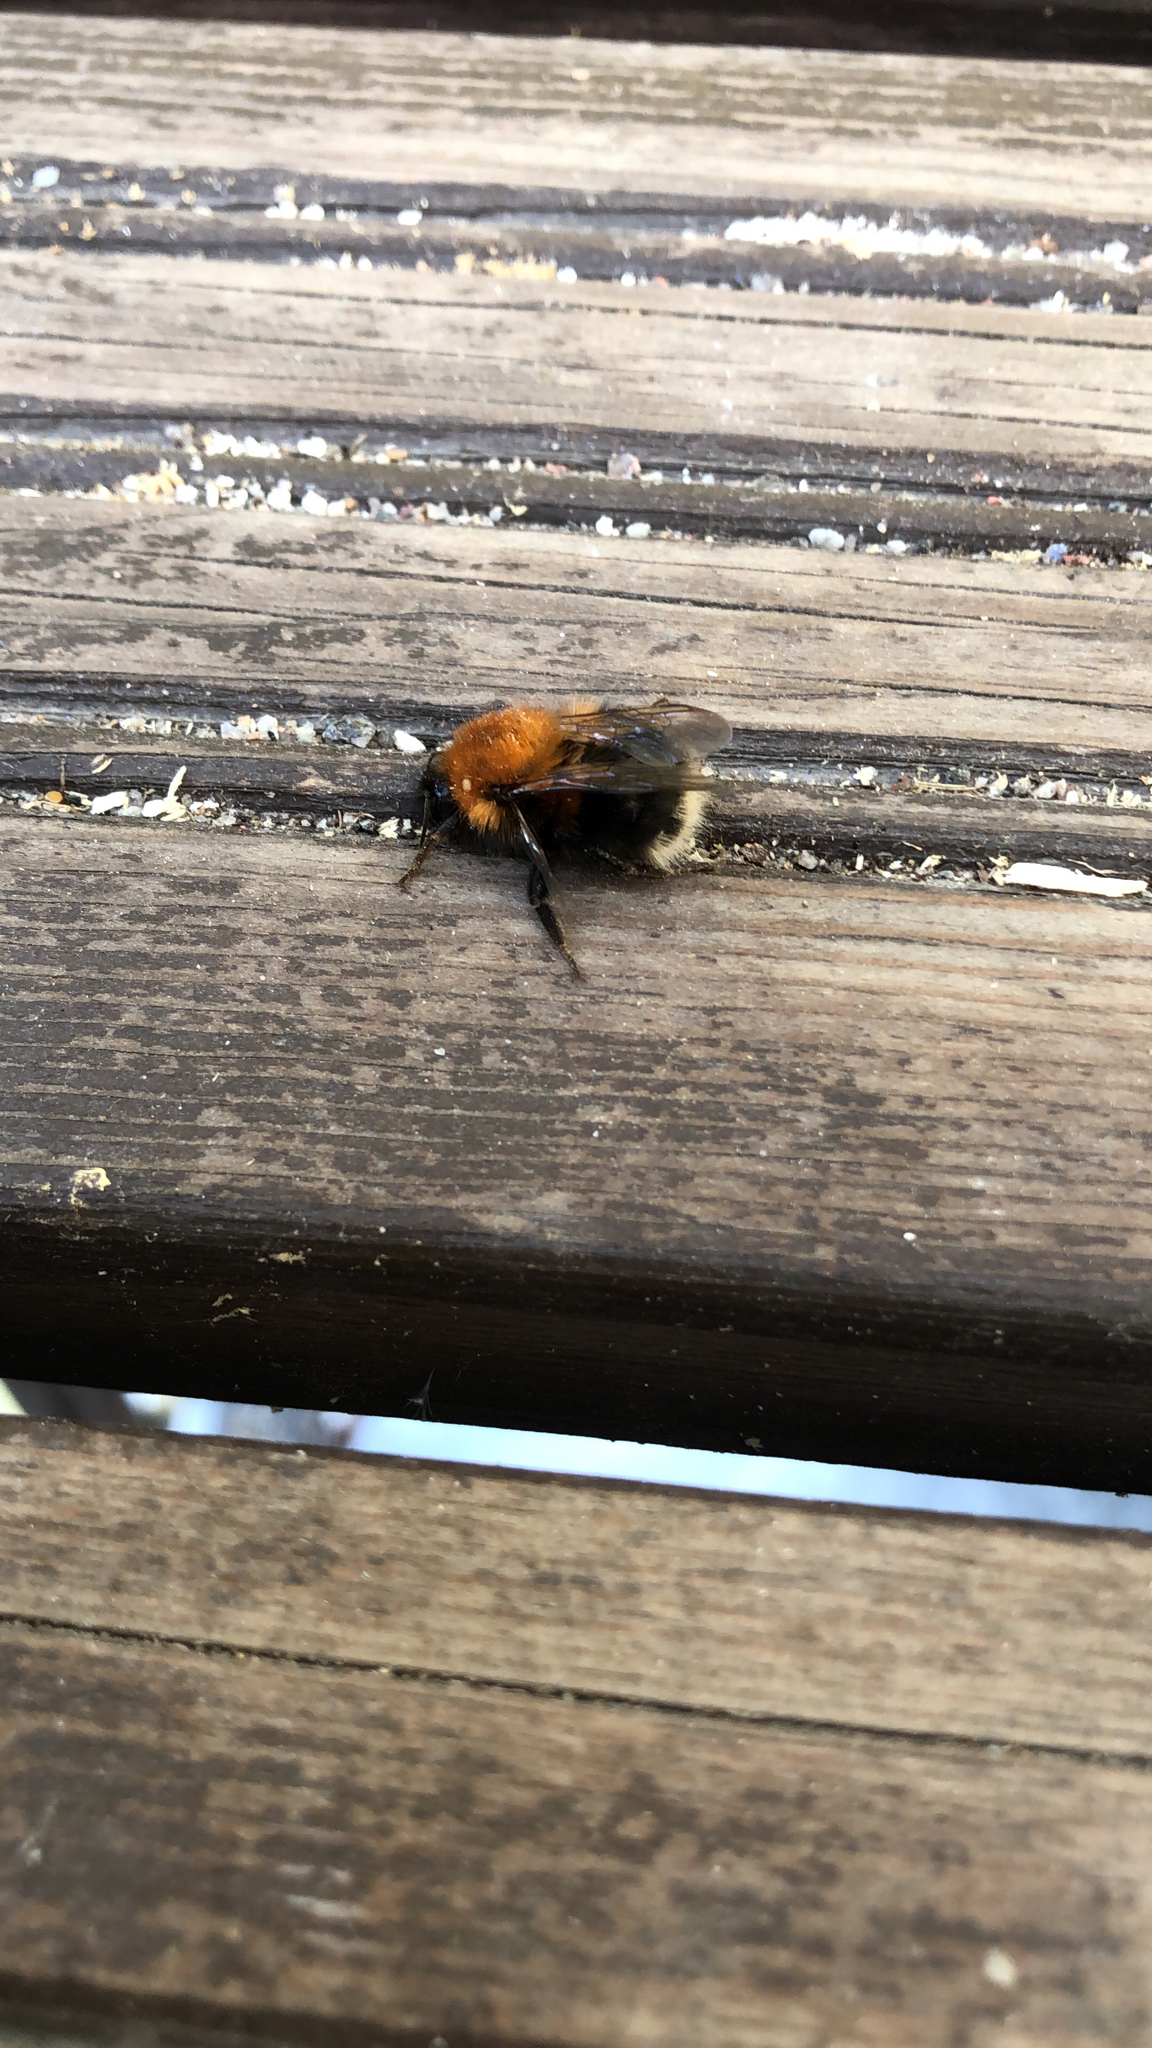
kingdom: Animalia
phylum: Arthropoda
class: Insecta
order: Hymenoptera
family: Apidae
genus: Bombus
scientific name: Bombus hypnorum
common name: New garden bumblebee
